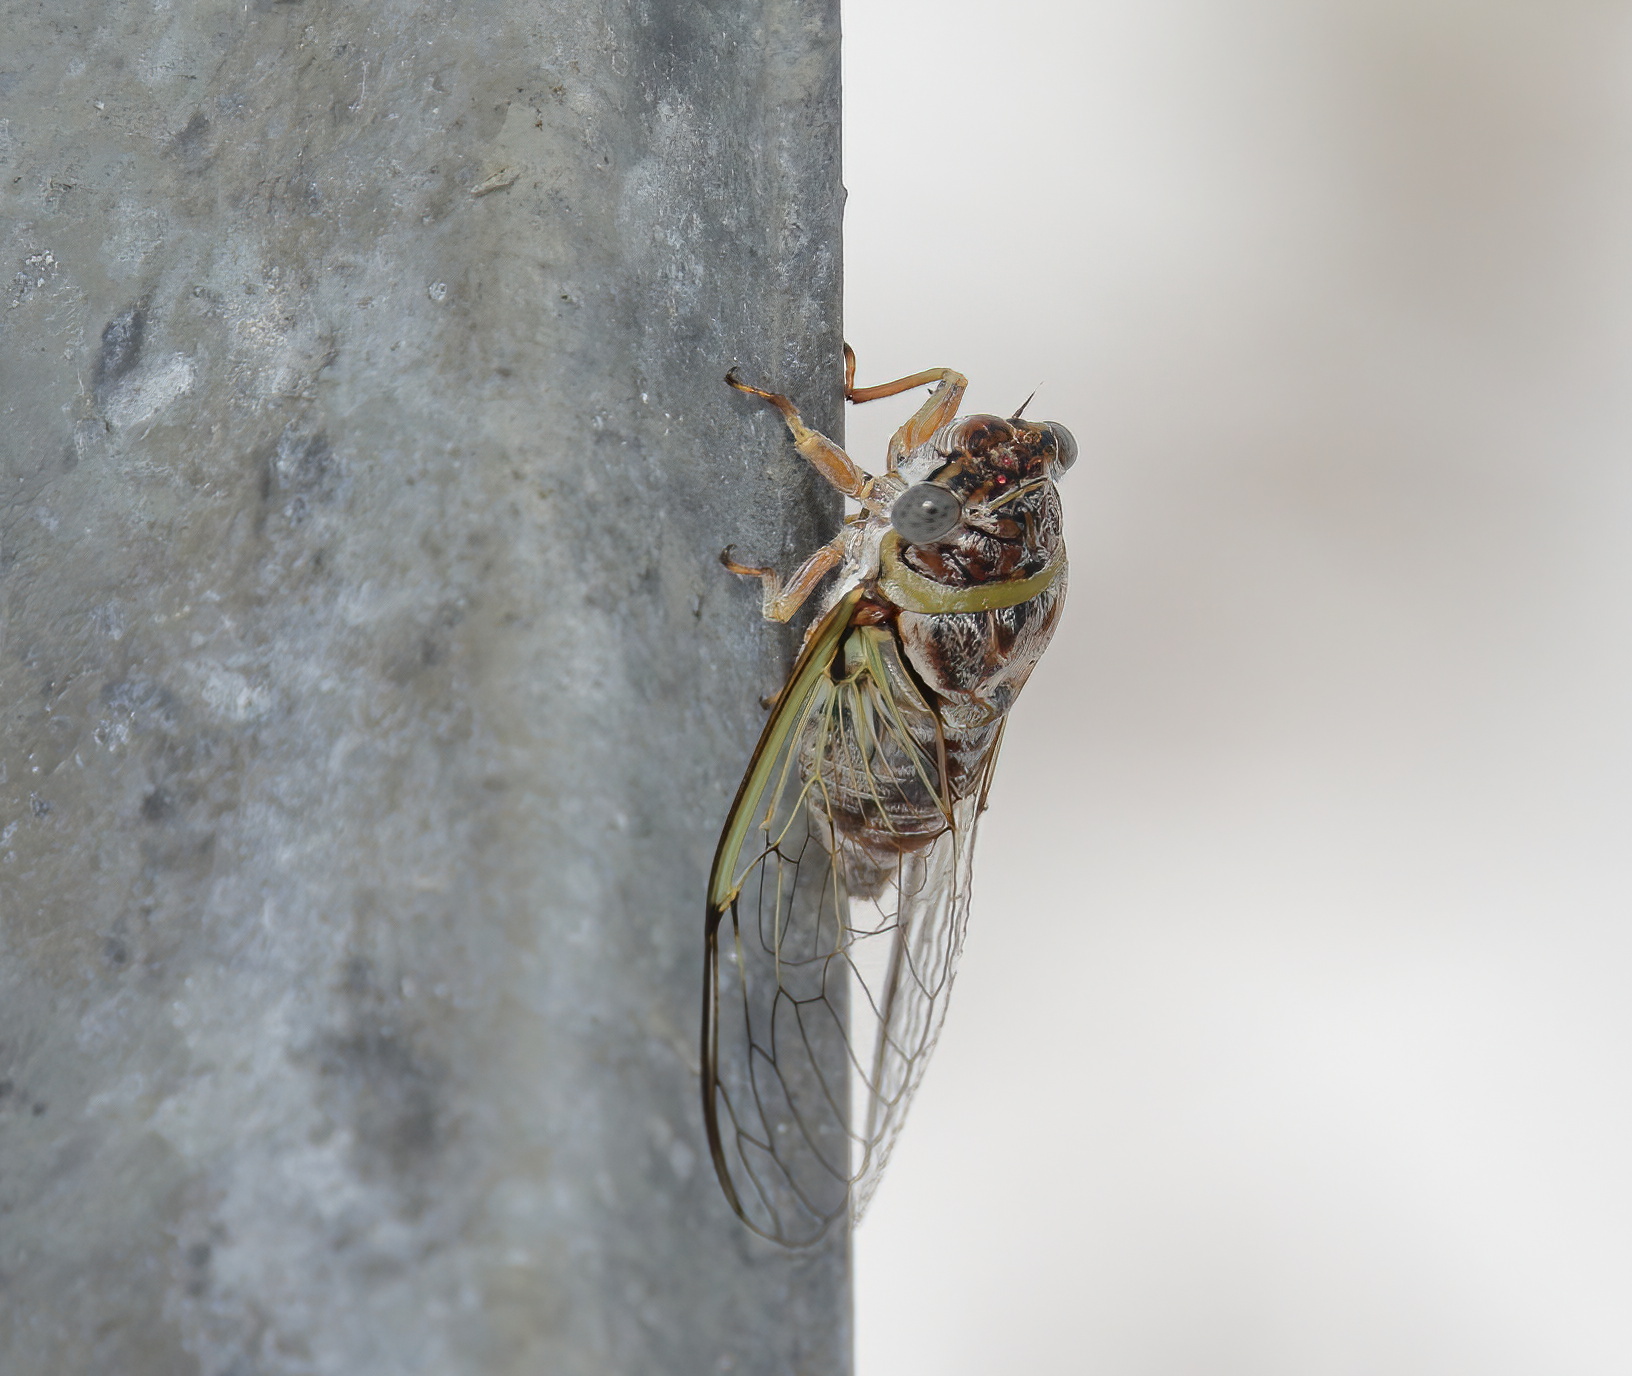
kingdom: Animalia
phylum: Arthropoda
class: Insecta
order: Hemiptera
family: Cicadidae
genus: Diceroprocta
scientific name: Diceroprocta viridifascia
